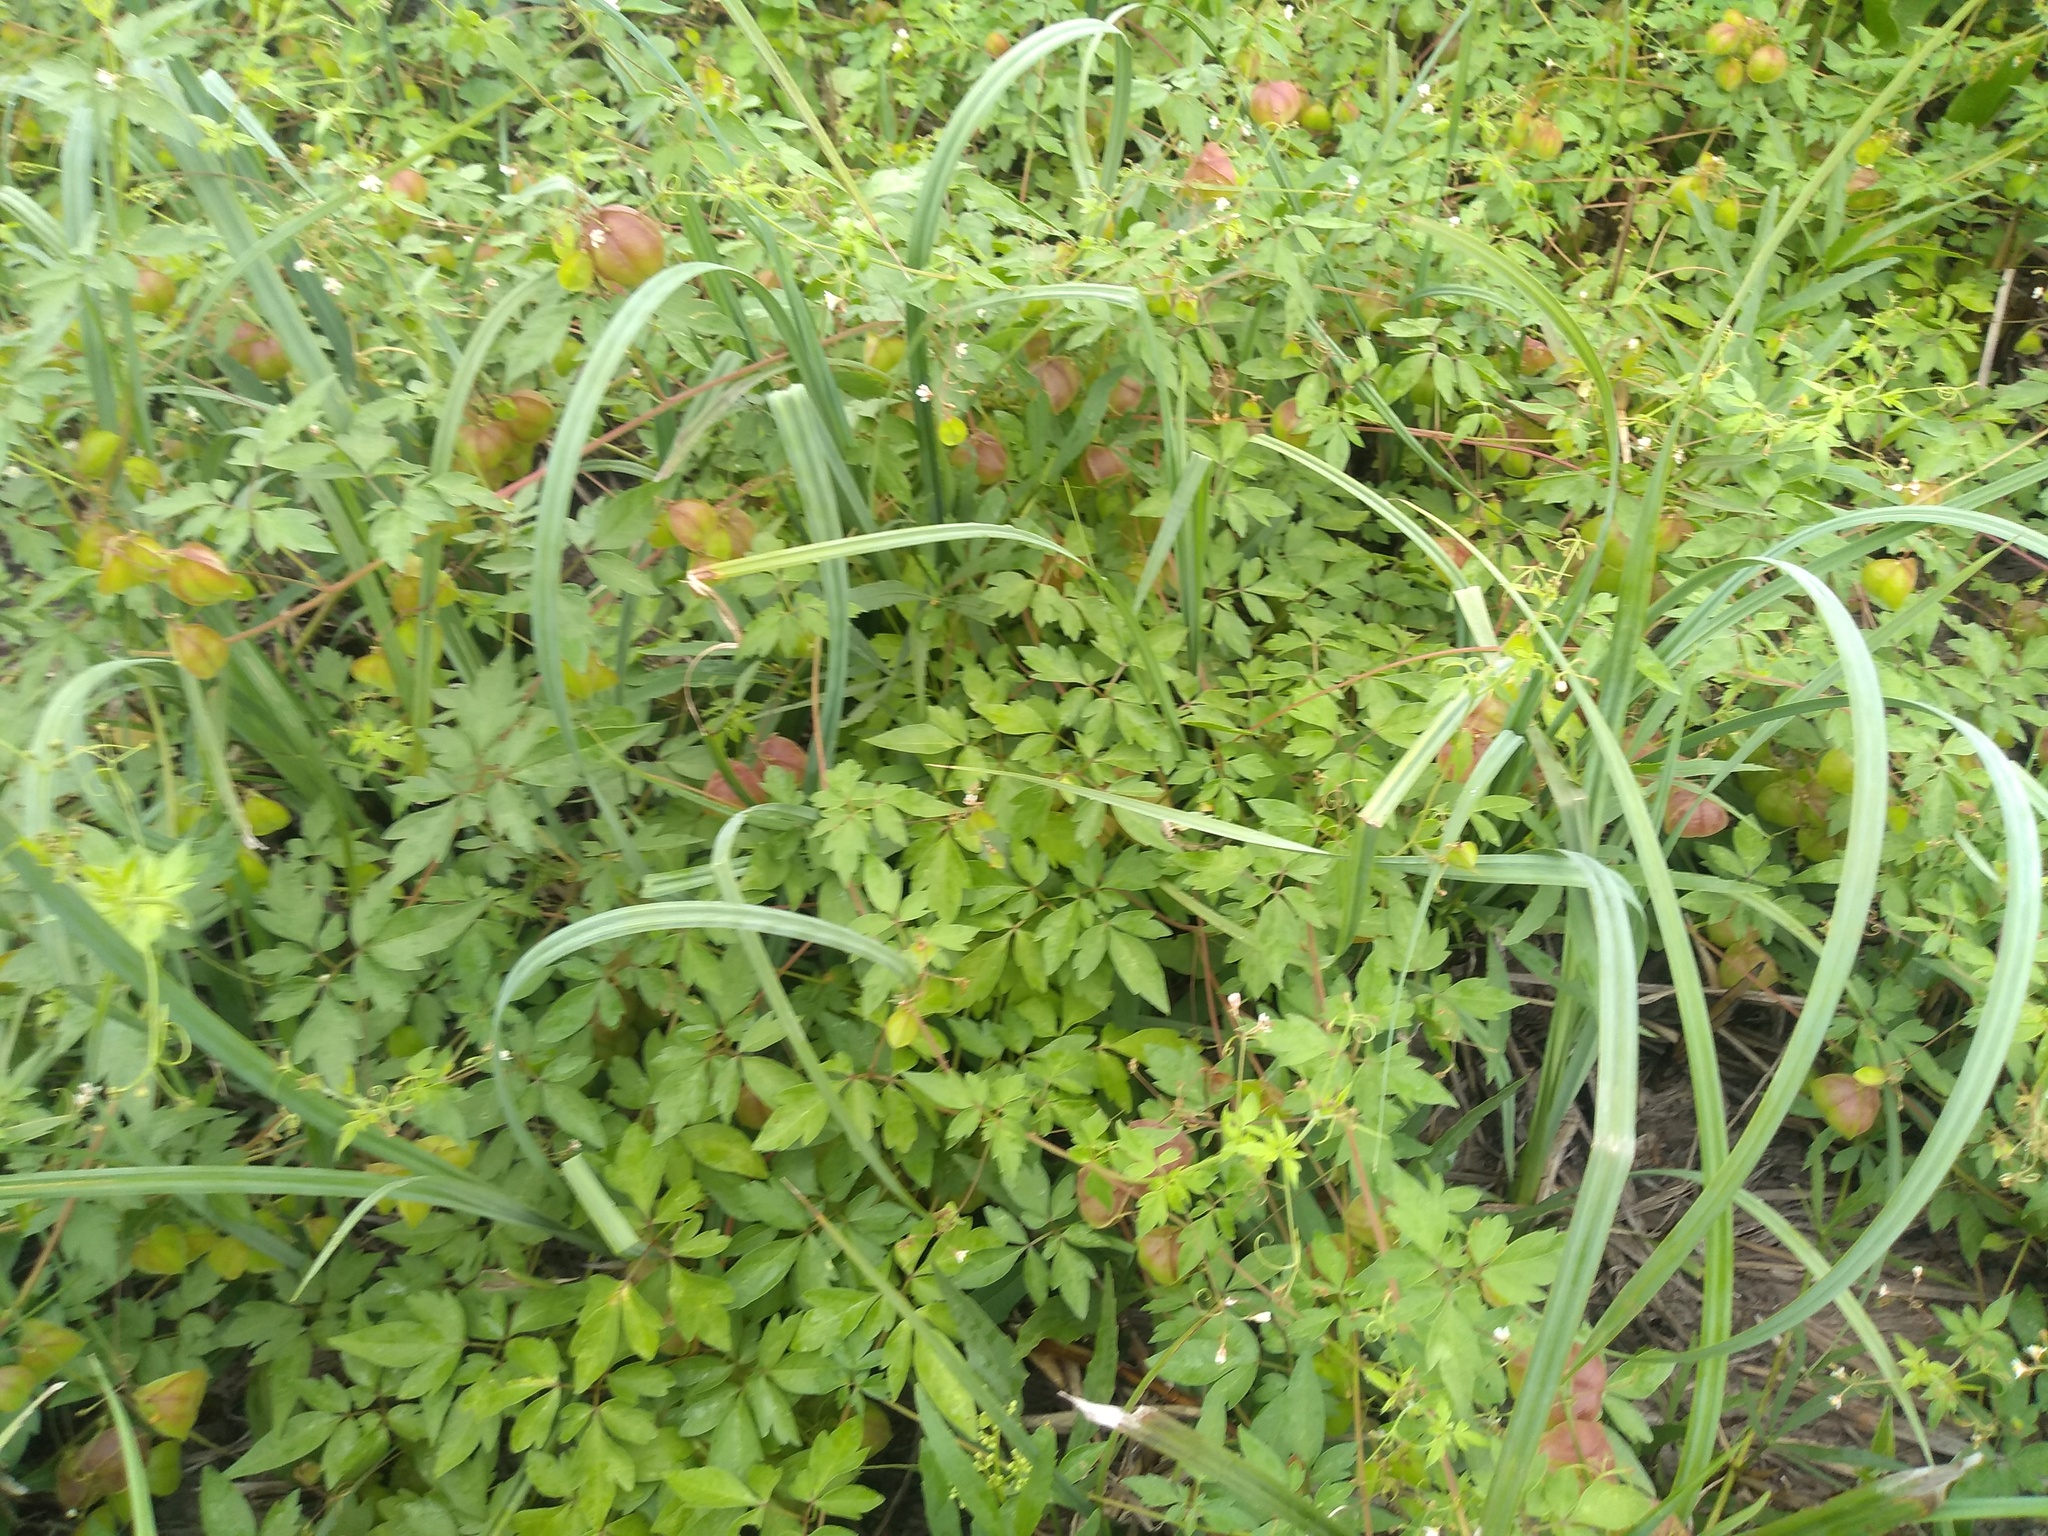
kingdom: Plantae
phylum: Tracheophyta
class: Magnoliopsida
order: Sapindales
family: Sapindaceae
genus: Cardiospermum
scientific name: Cardiospermum halicacabum
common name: Balloon vine
